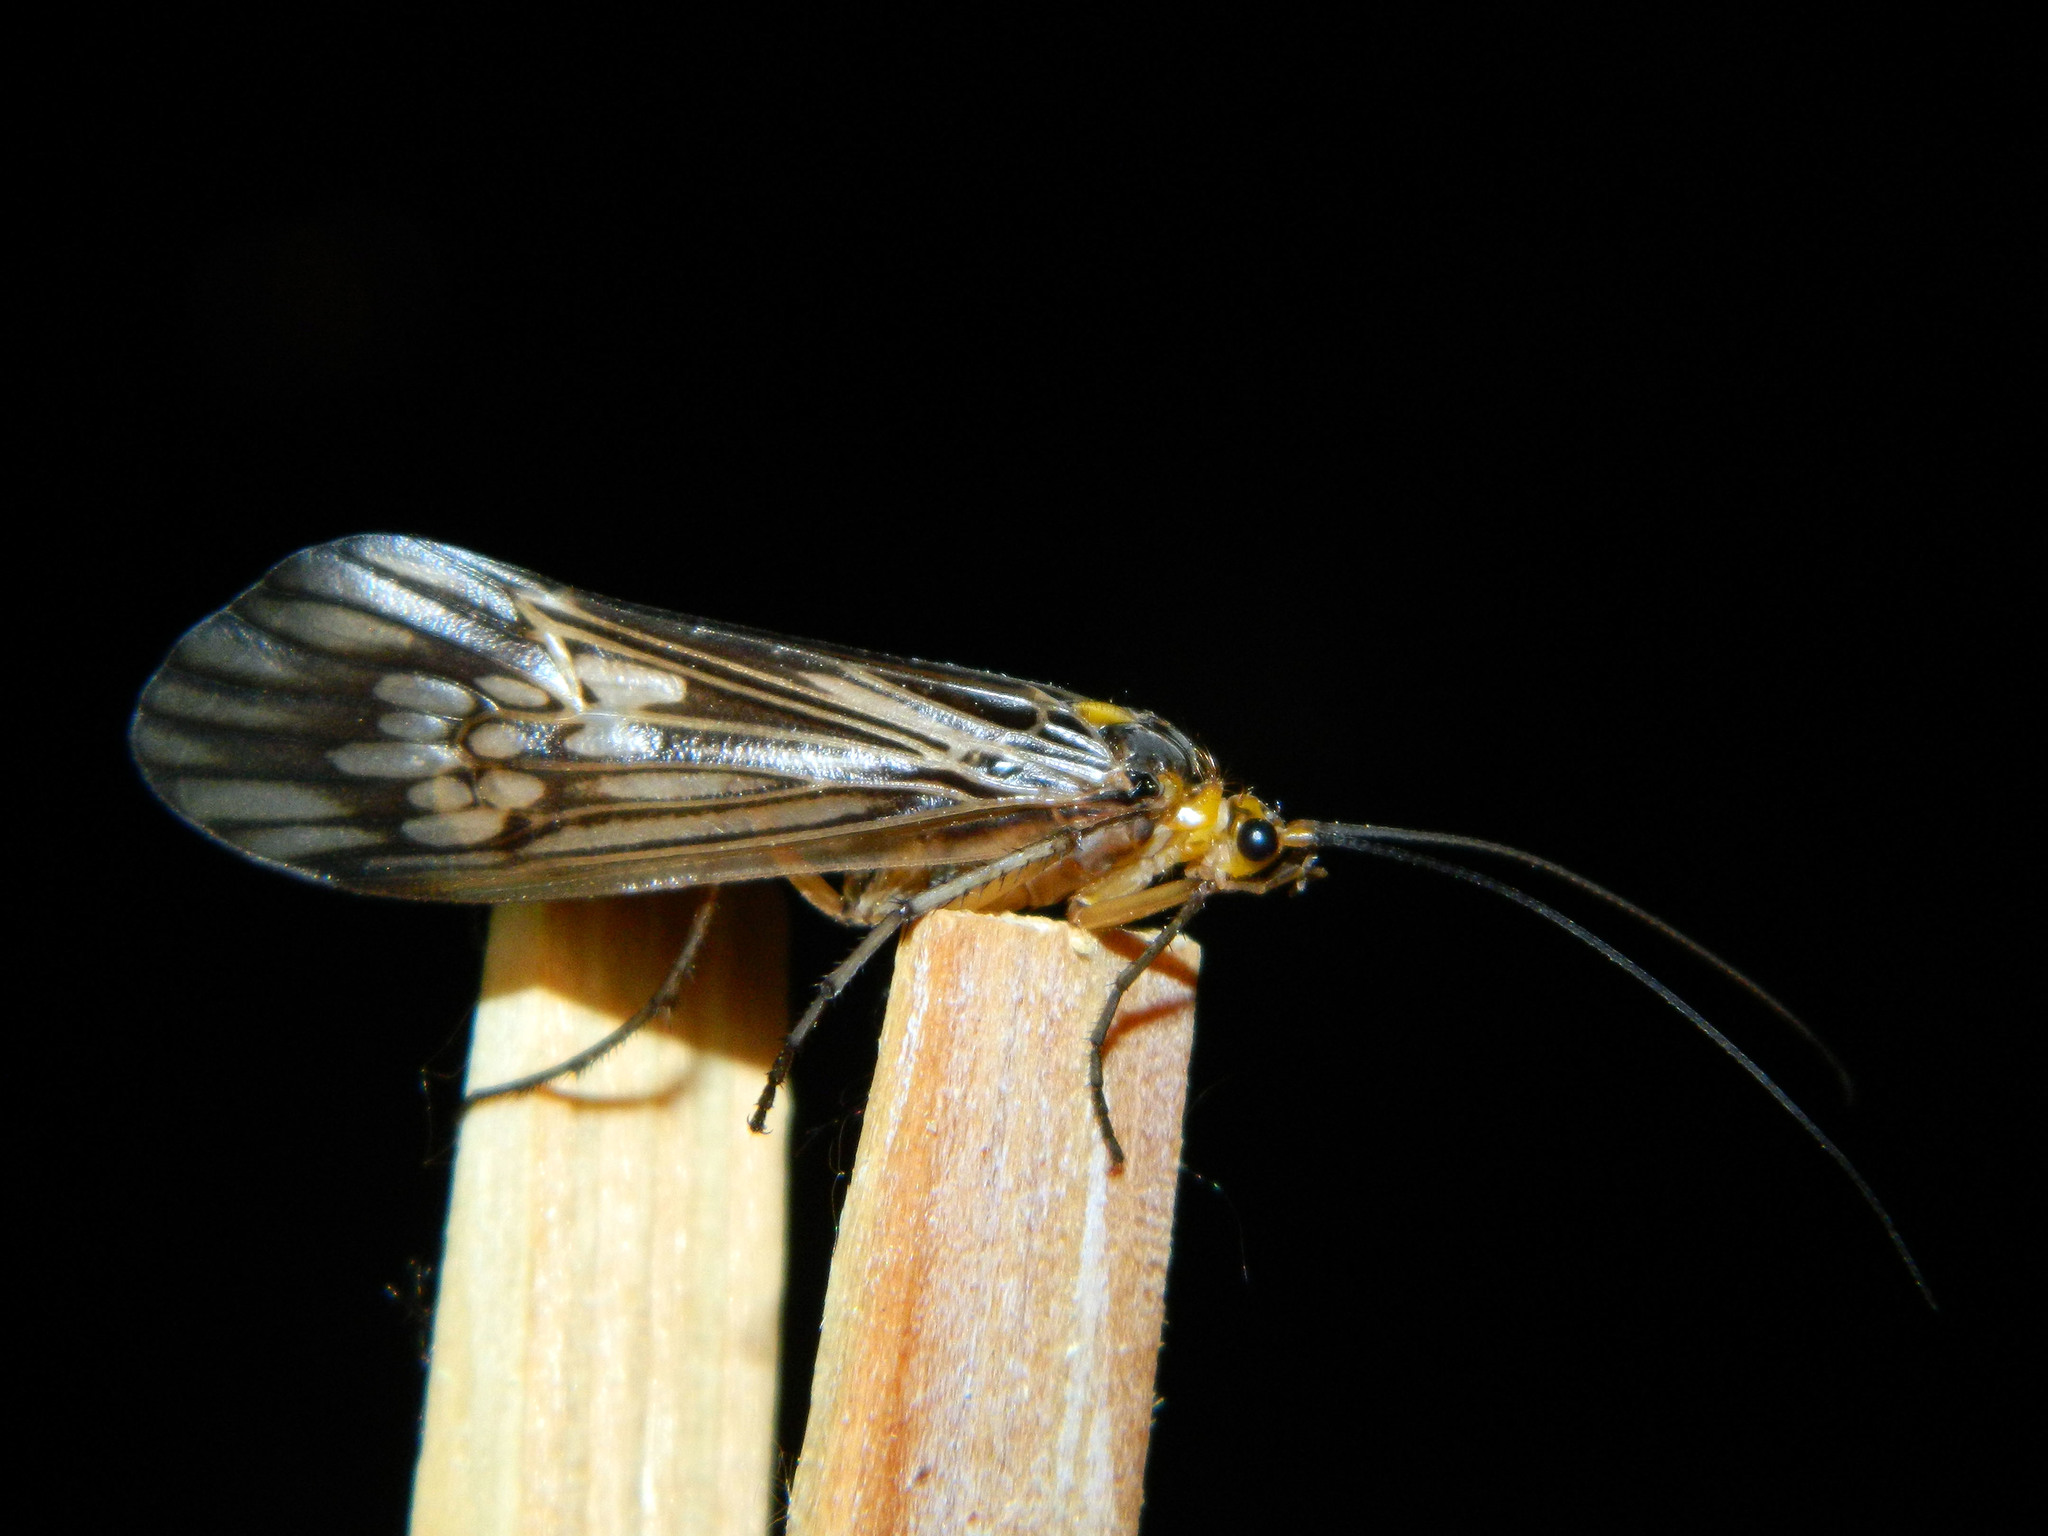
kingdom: Animalia
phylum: Arthropoda
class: Insecta
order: Trichoptera
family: Limnephilidae
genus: Hydatophylax
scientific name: Hydatophylax argus
